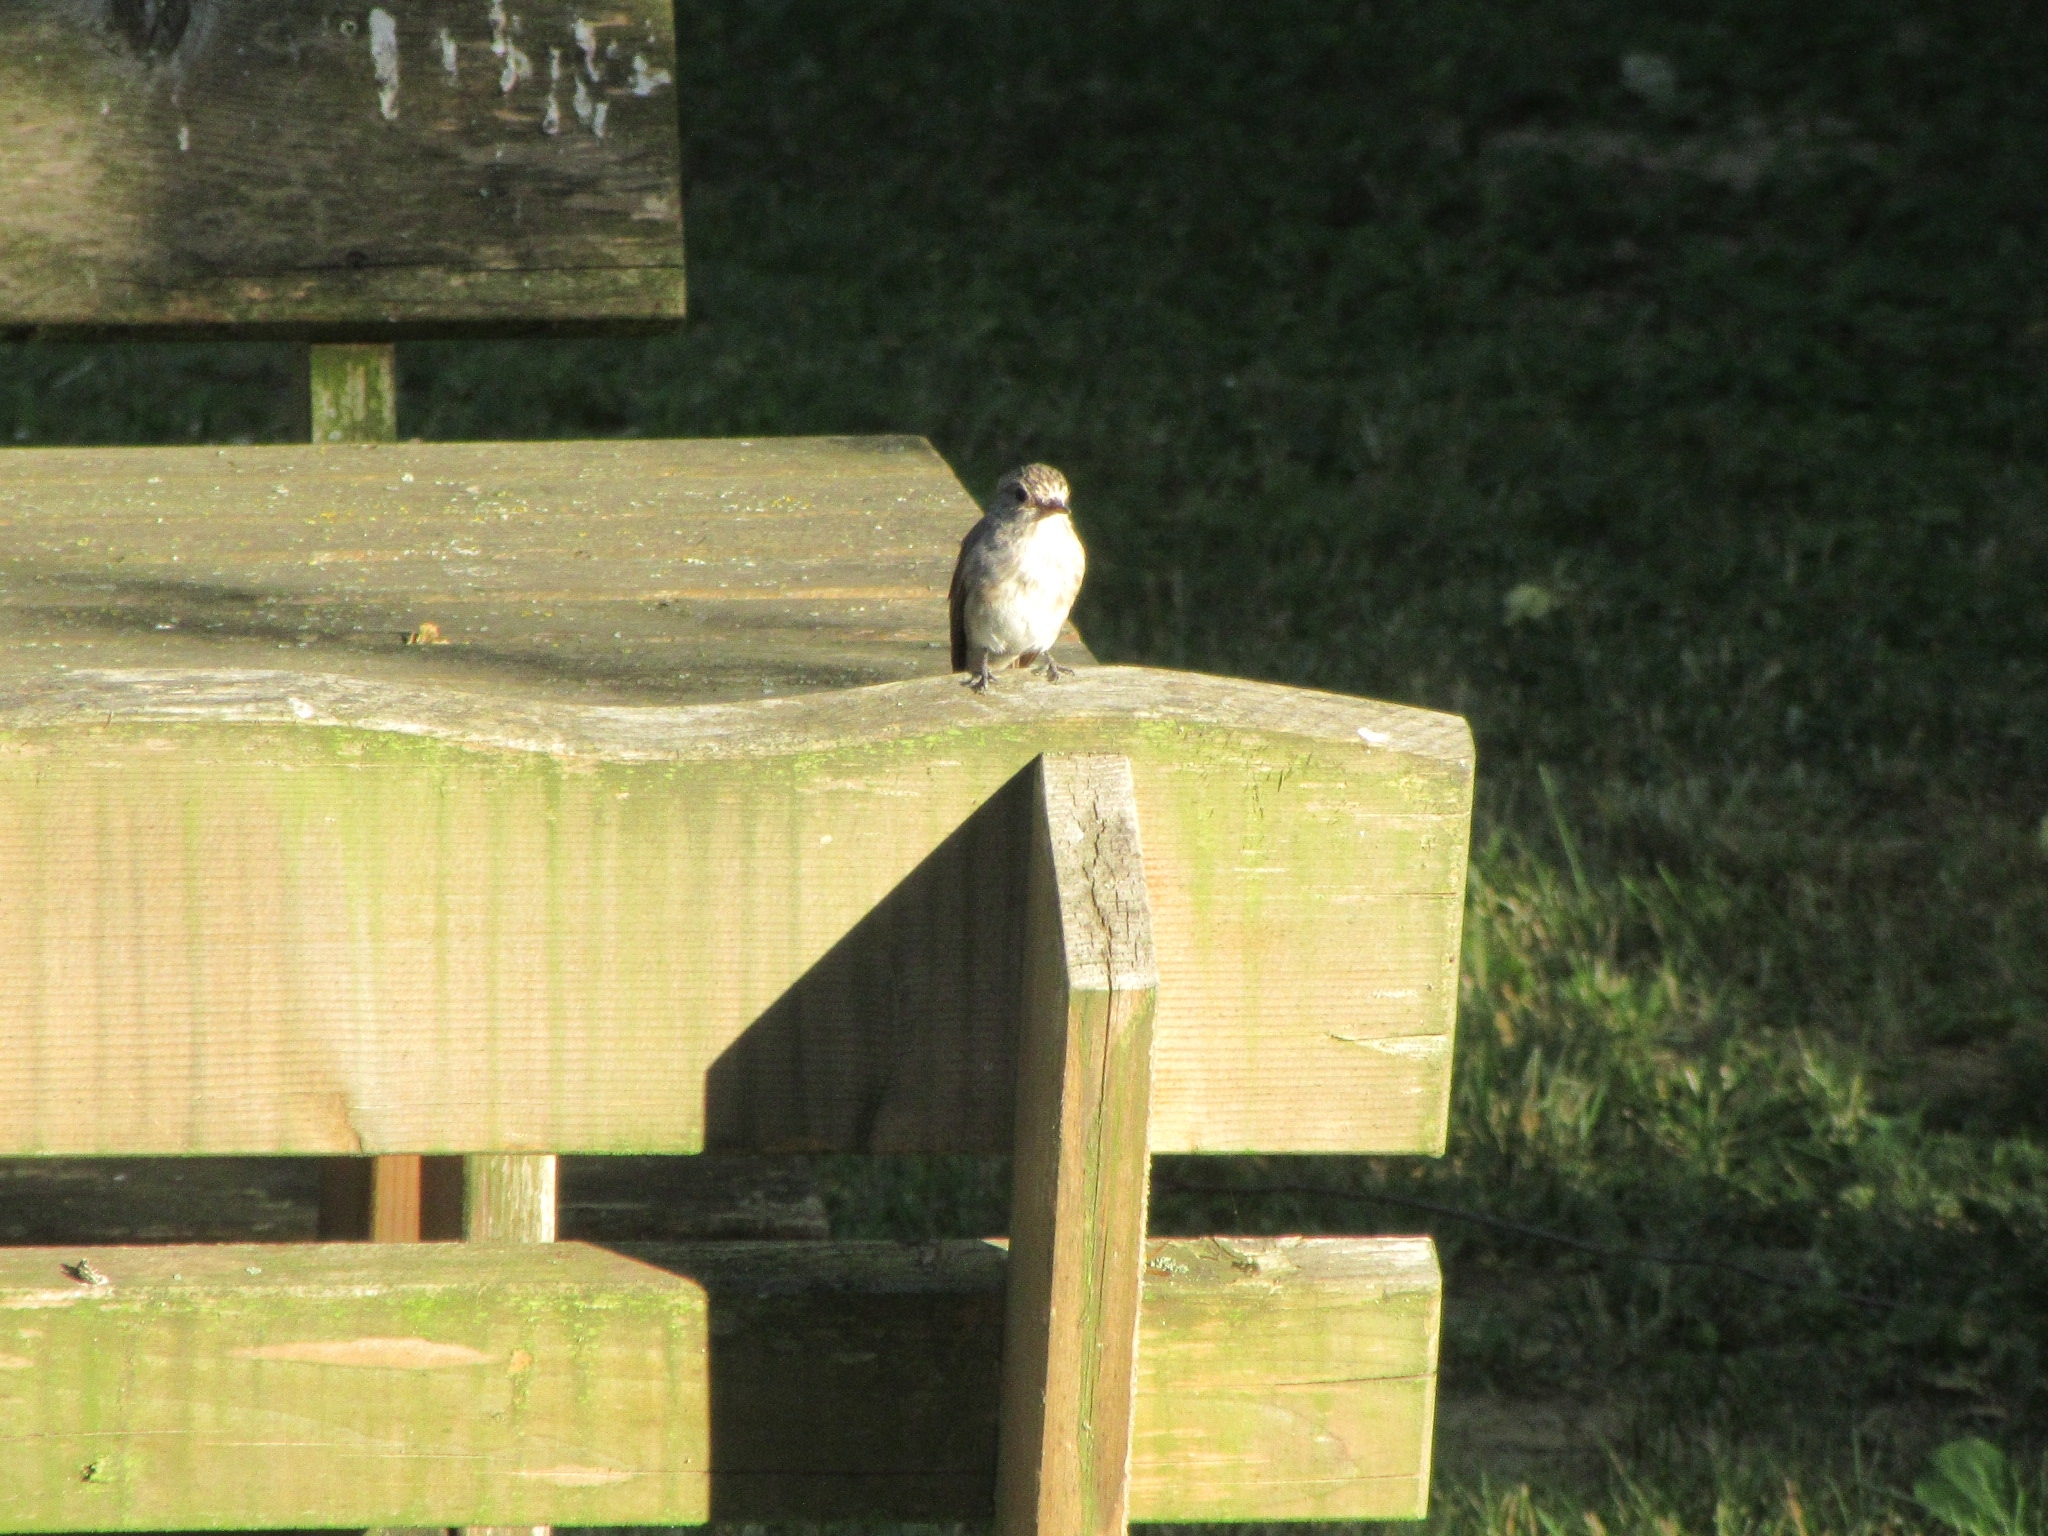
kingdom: Animalia
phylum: Chordata
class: Aves
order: Passeriformes
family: Muscicapidae
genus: Muscicapa
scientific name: Muscicapa striata
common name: Spotted flycatcher
